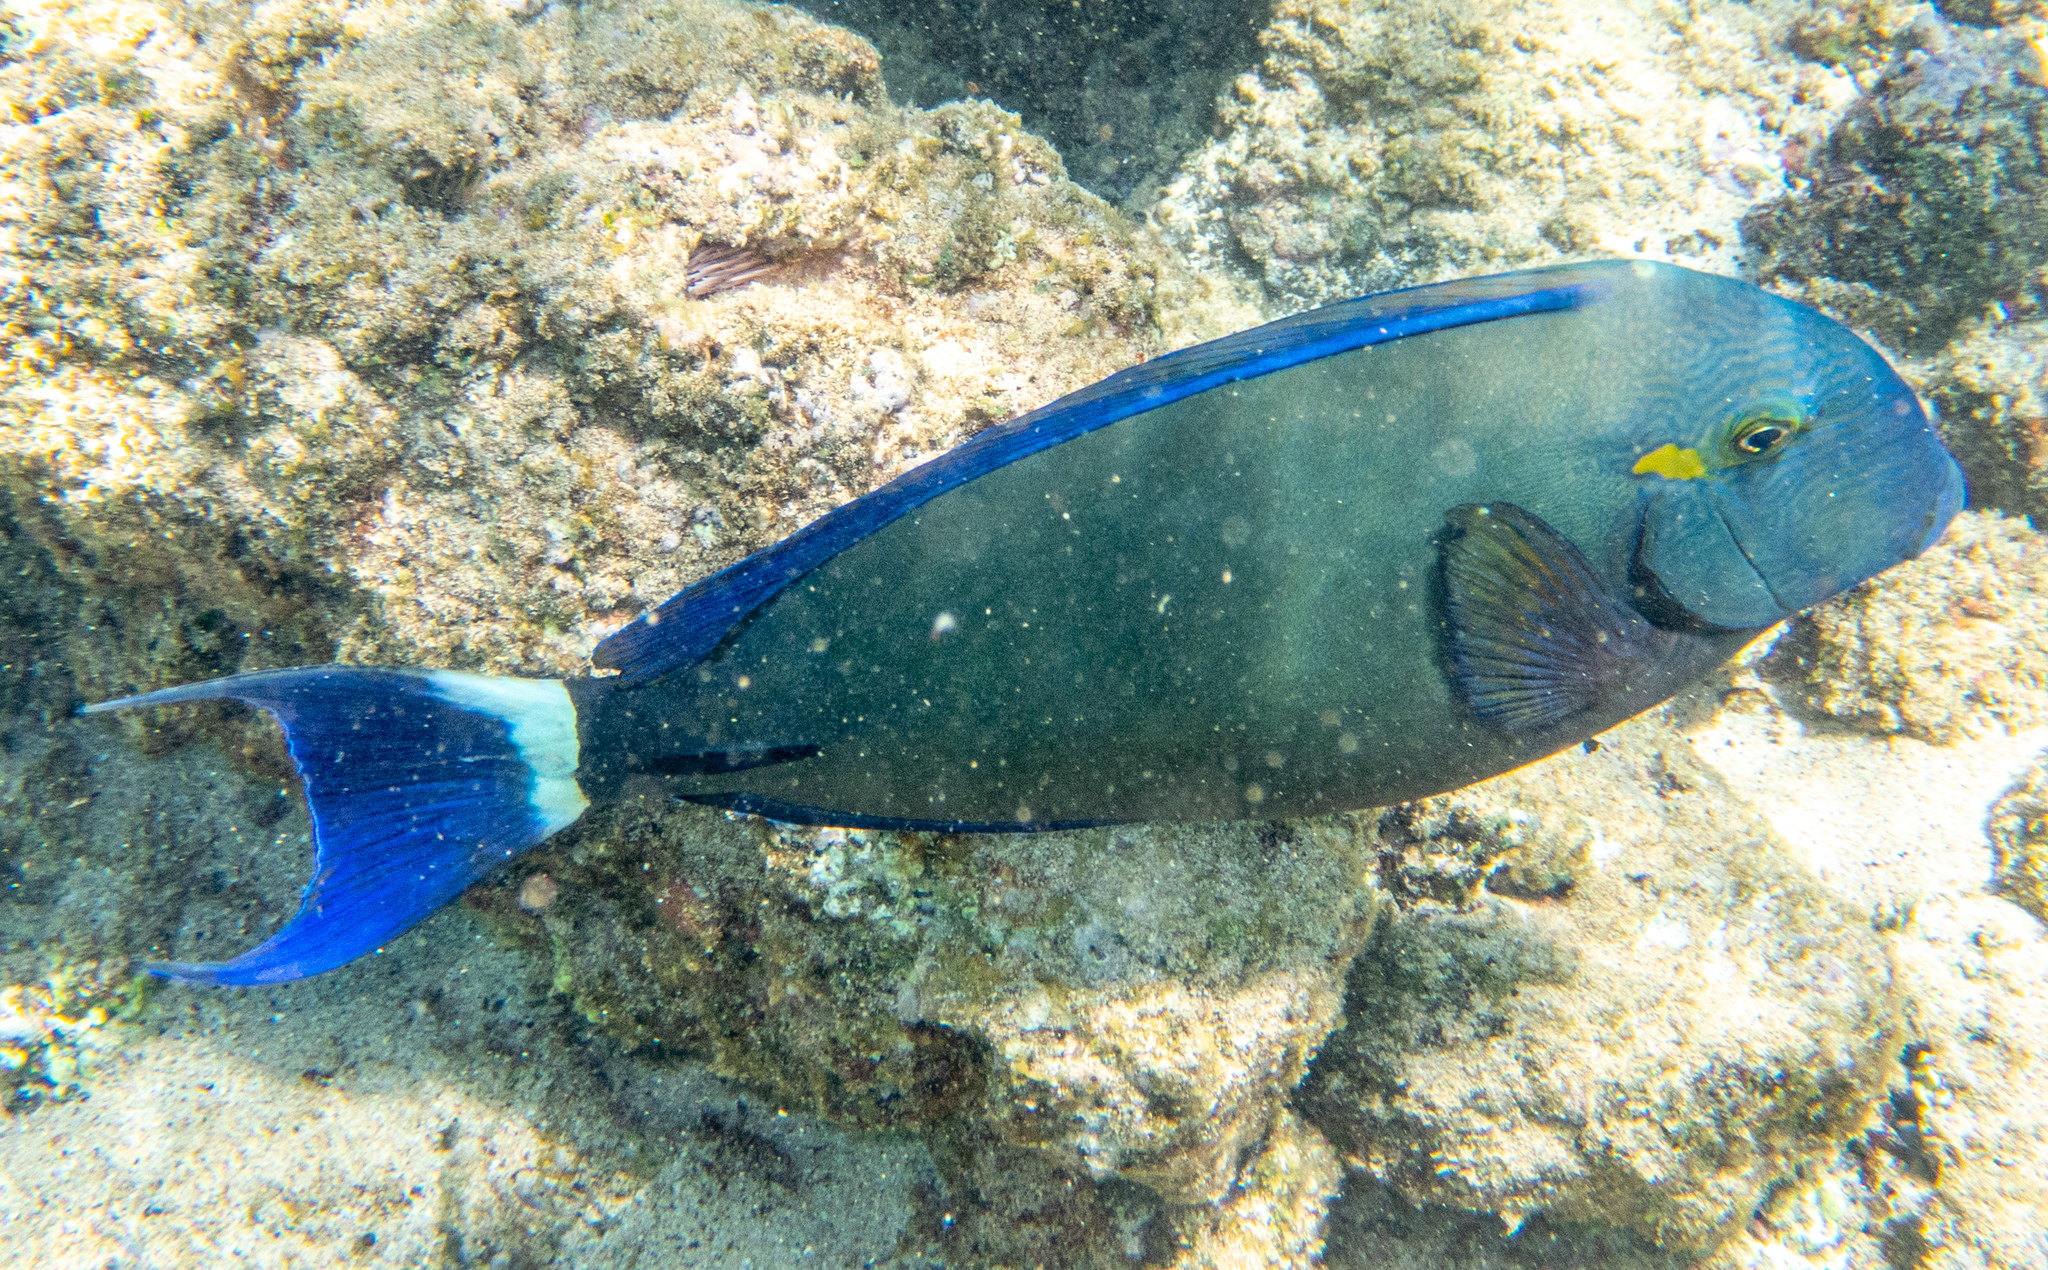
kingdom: Animalia
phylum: Chordata
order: Perciformes
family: Acanthuridae
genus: Acanthurus
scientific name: Acanthurus blochii
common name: Blue-banded pualu
